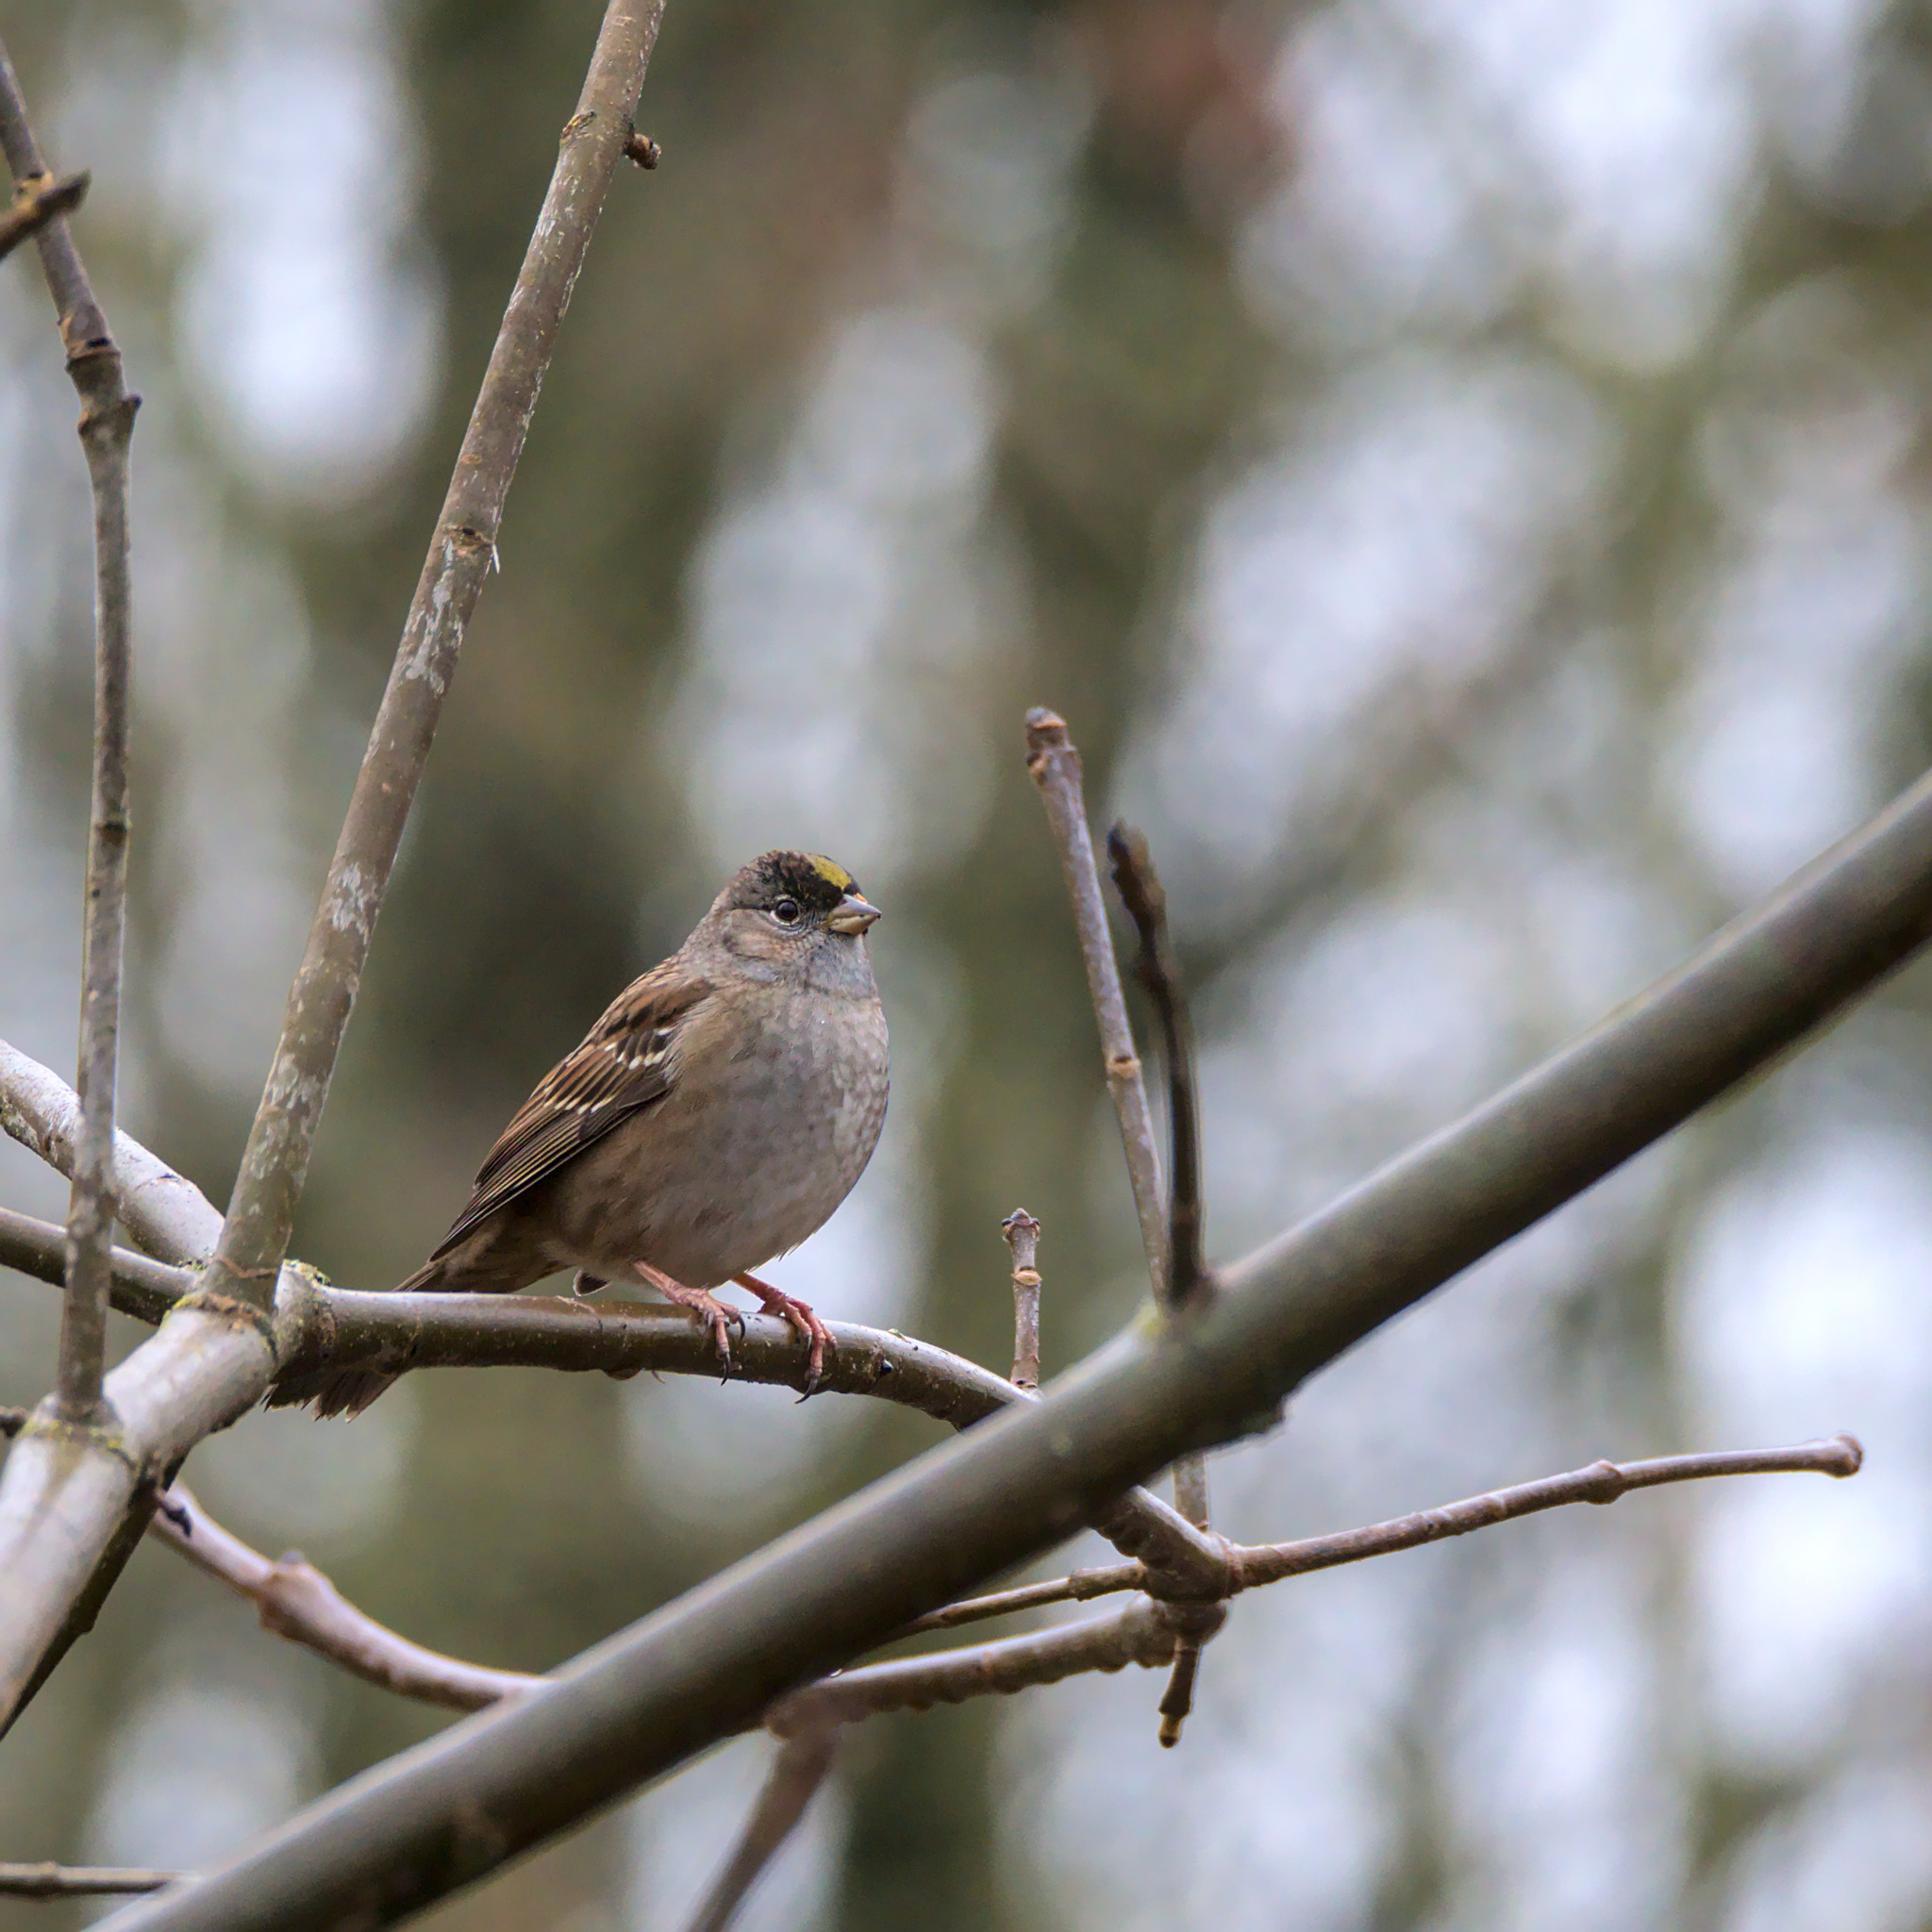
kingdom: Animalia
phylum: Chordata
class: Aves
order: Passeriformes
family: Passerellidae
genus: Zonotrichia
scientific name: Zonotrichia atricapilla
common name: Golden-crowned sparrow
